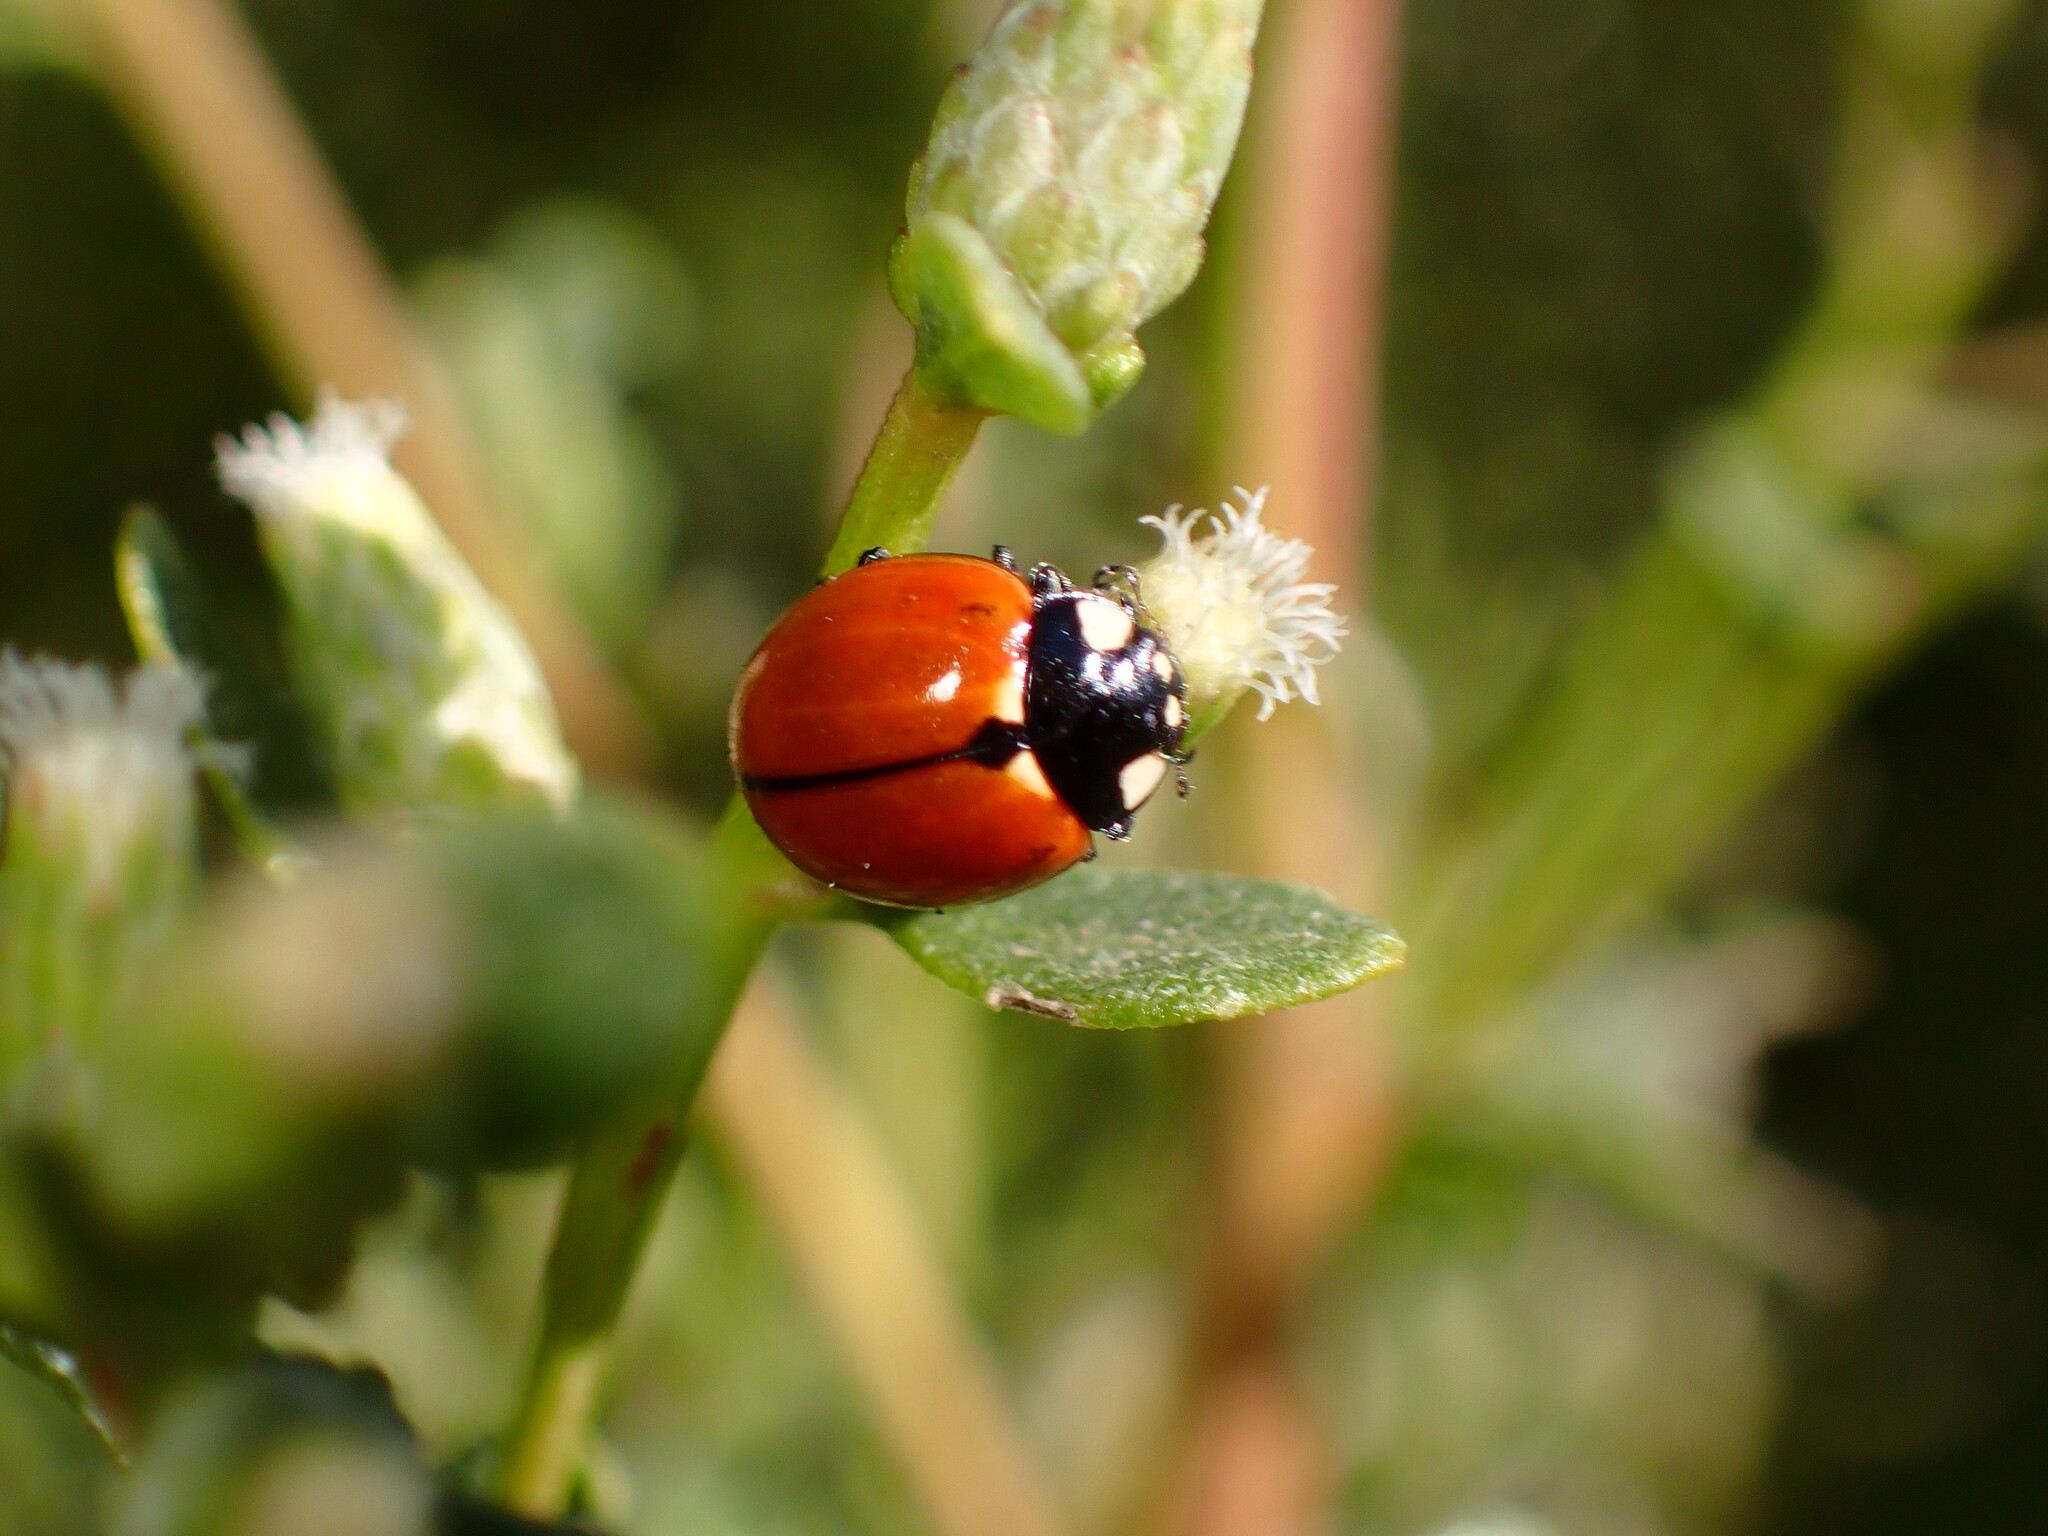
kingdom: Animalia
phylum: Arthropoda
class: Insecta
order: Coleoptera
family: Coccinellidae
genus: Coccinella
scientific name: Coccinella californica
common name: Lady beetle
